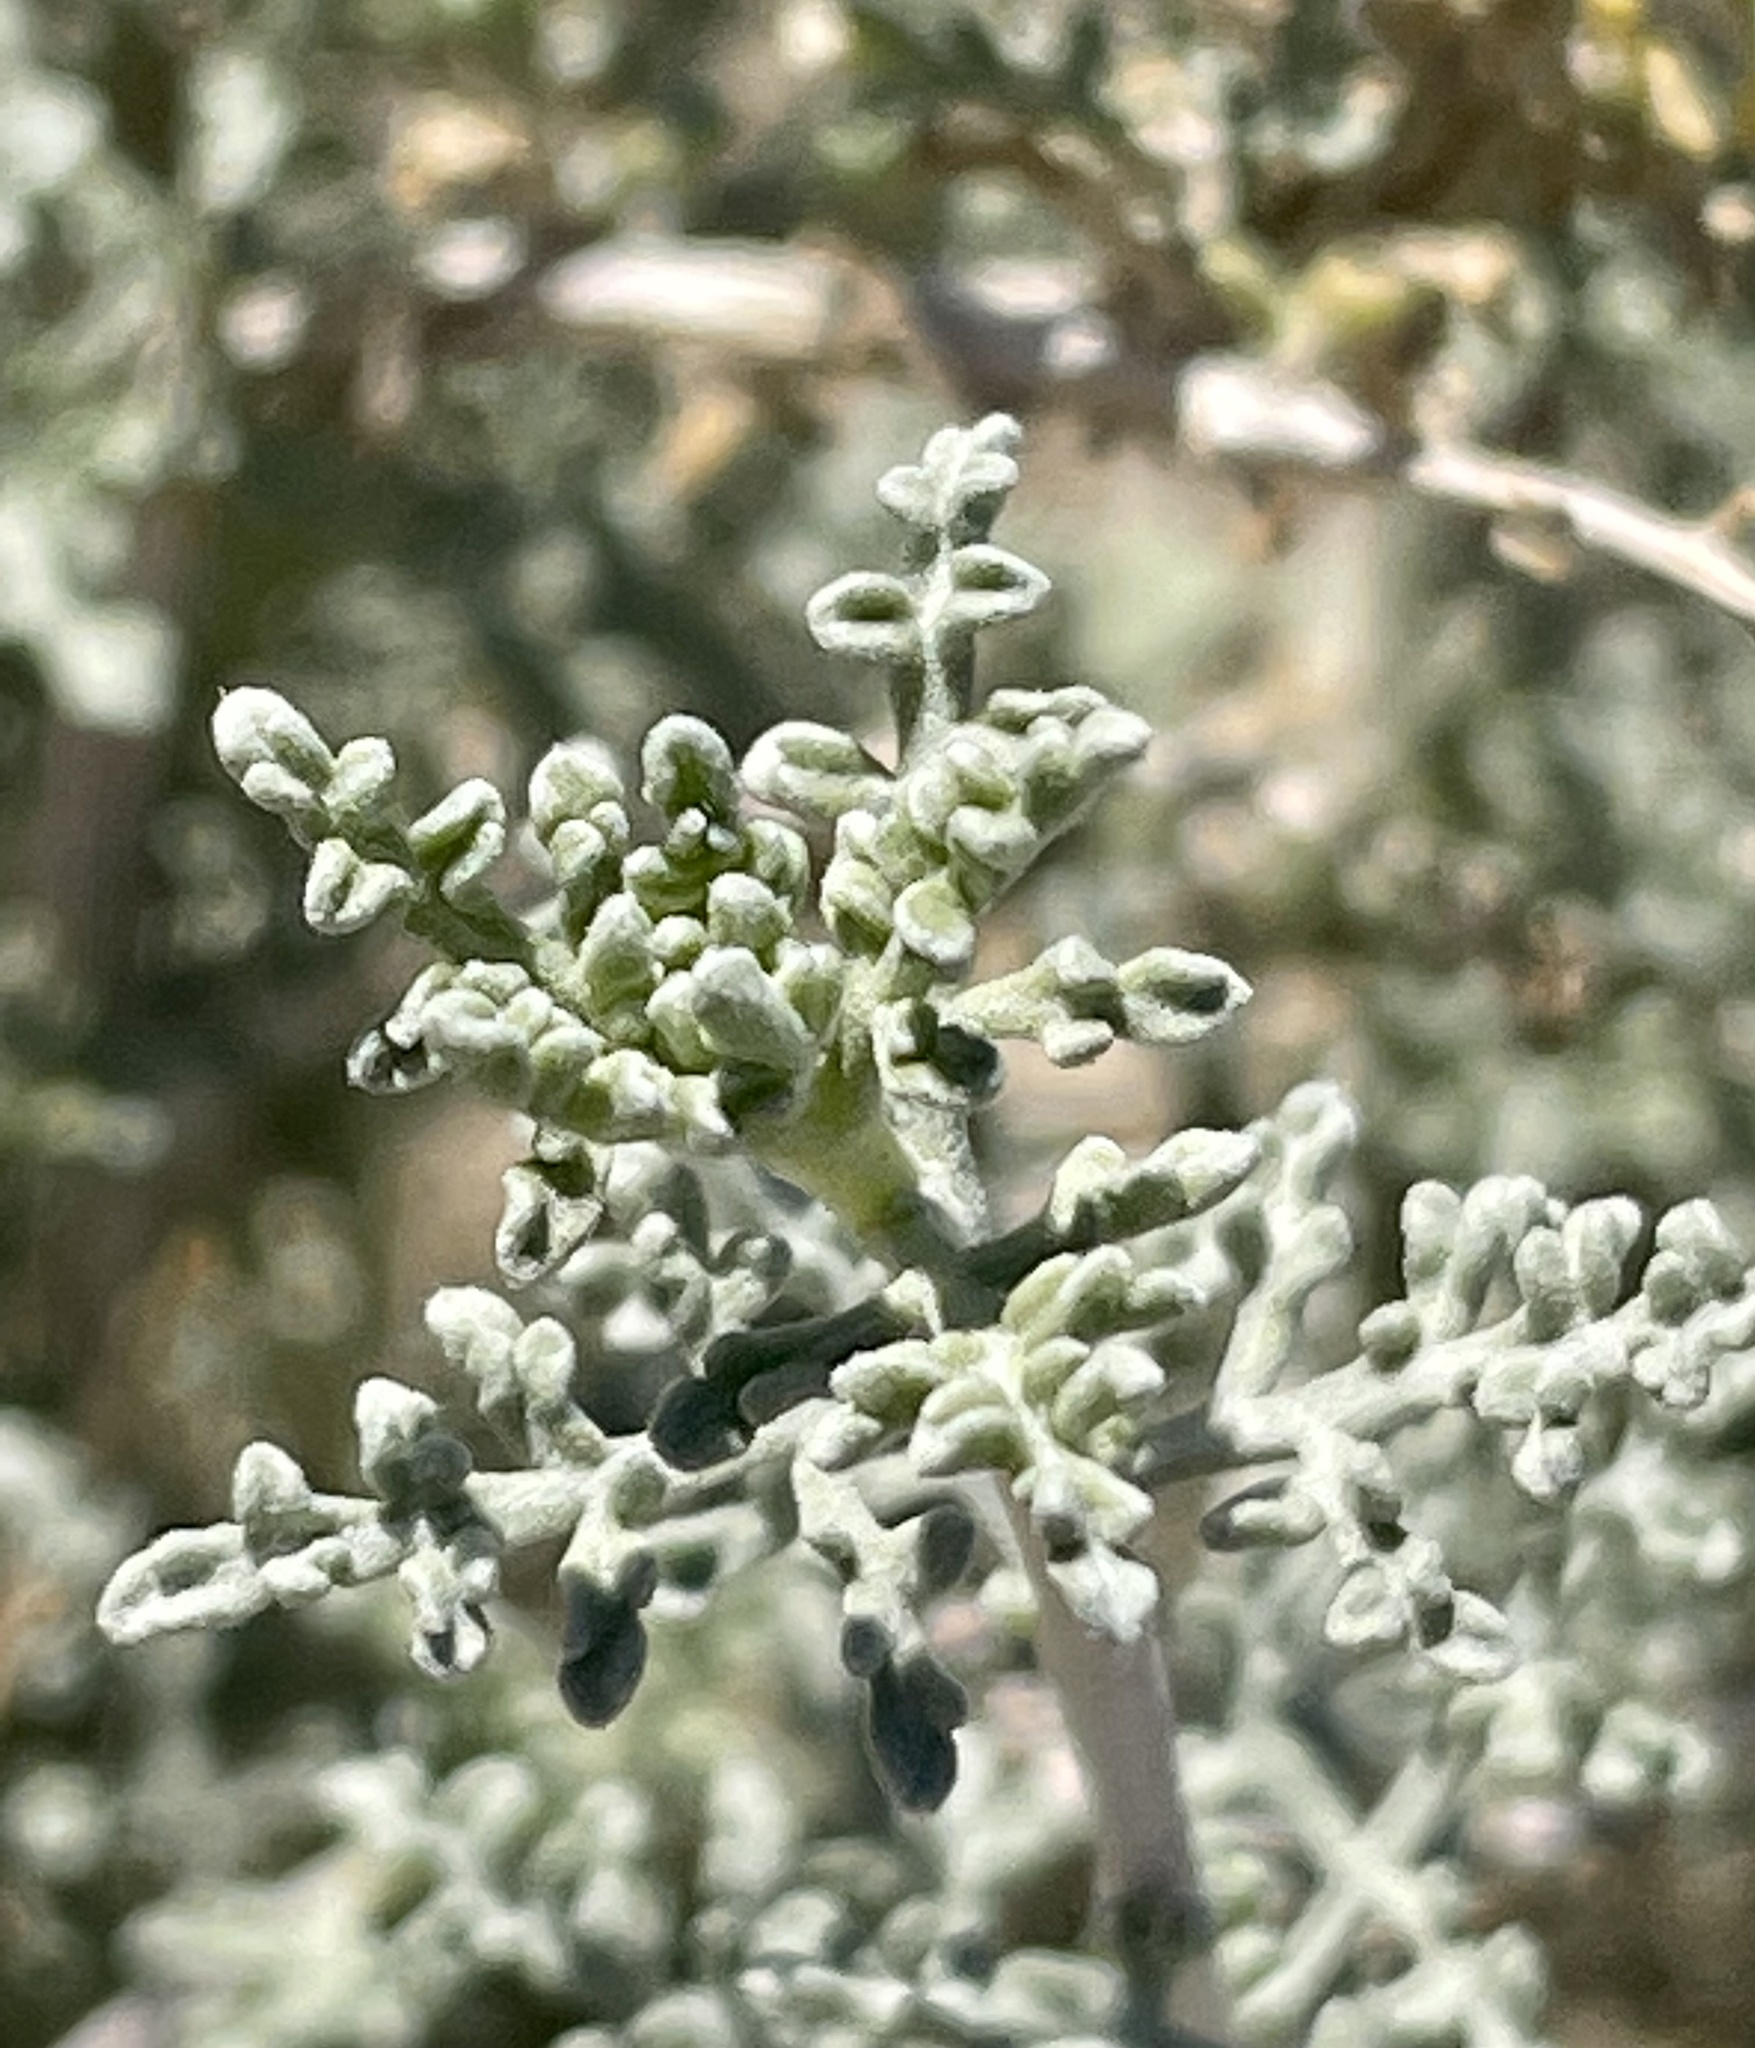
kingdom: Plantae
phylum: Tracheophyta
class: Magnoliopsida
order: Asterales
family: Asteraceae
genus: Ambrosia
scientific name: Ambrosia dumosa
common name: Bur-sage
